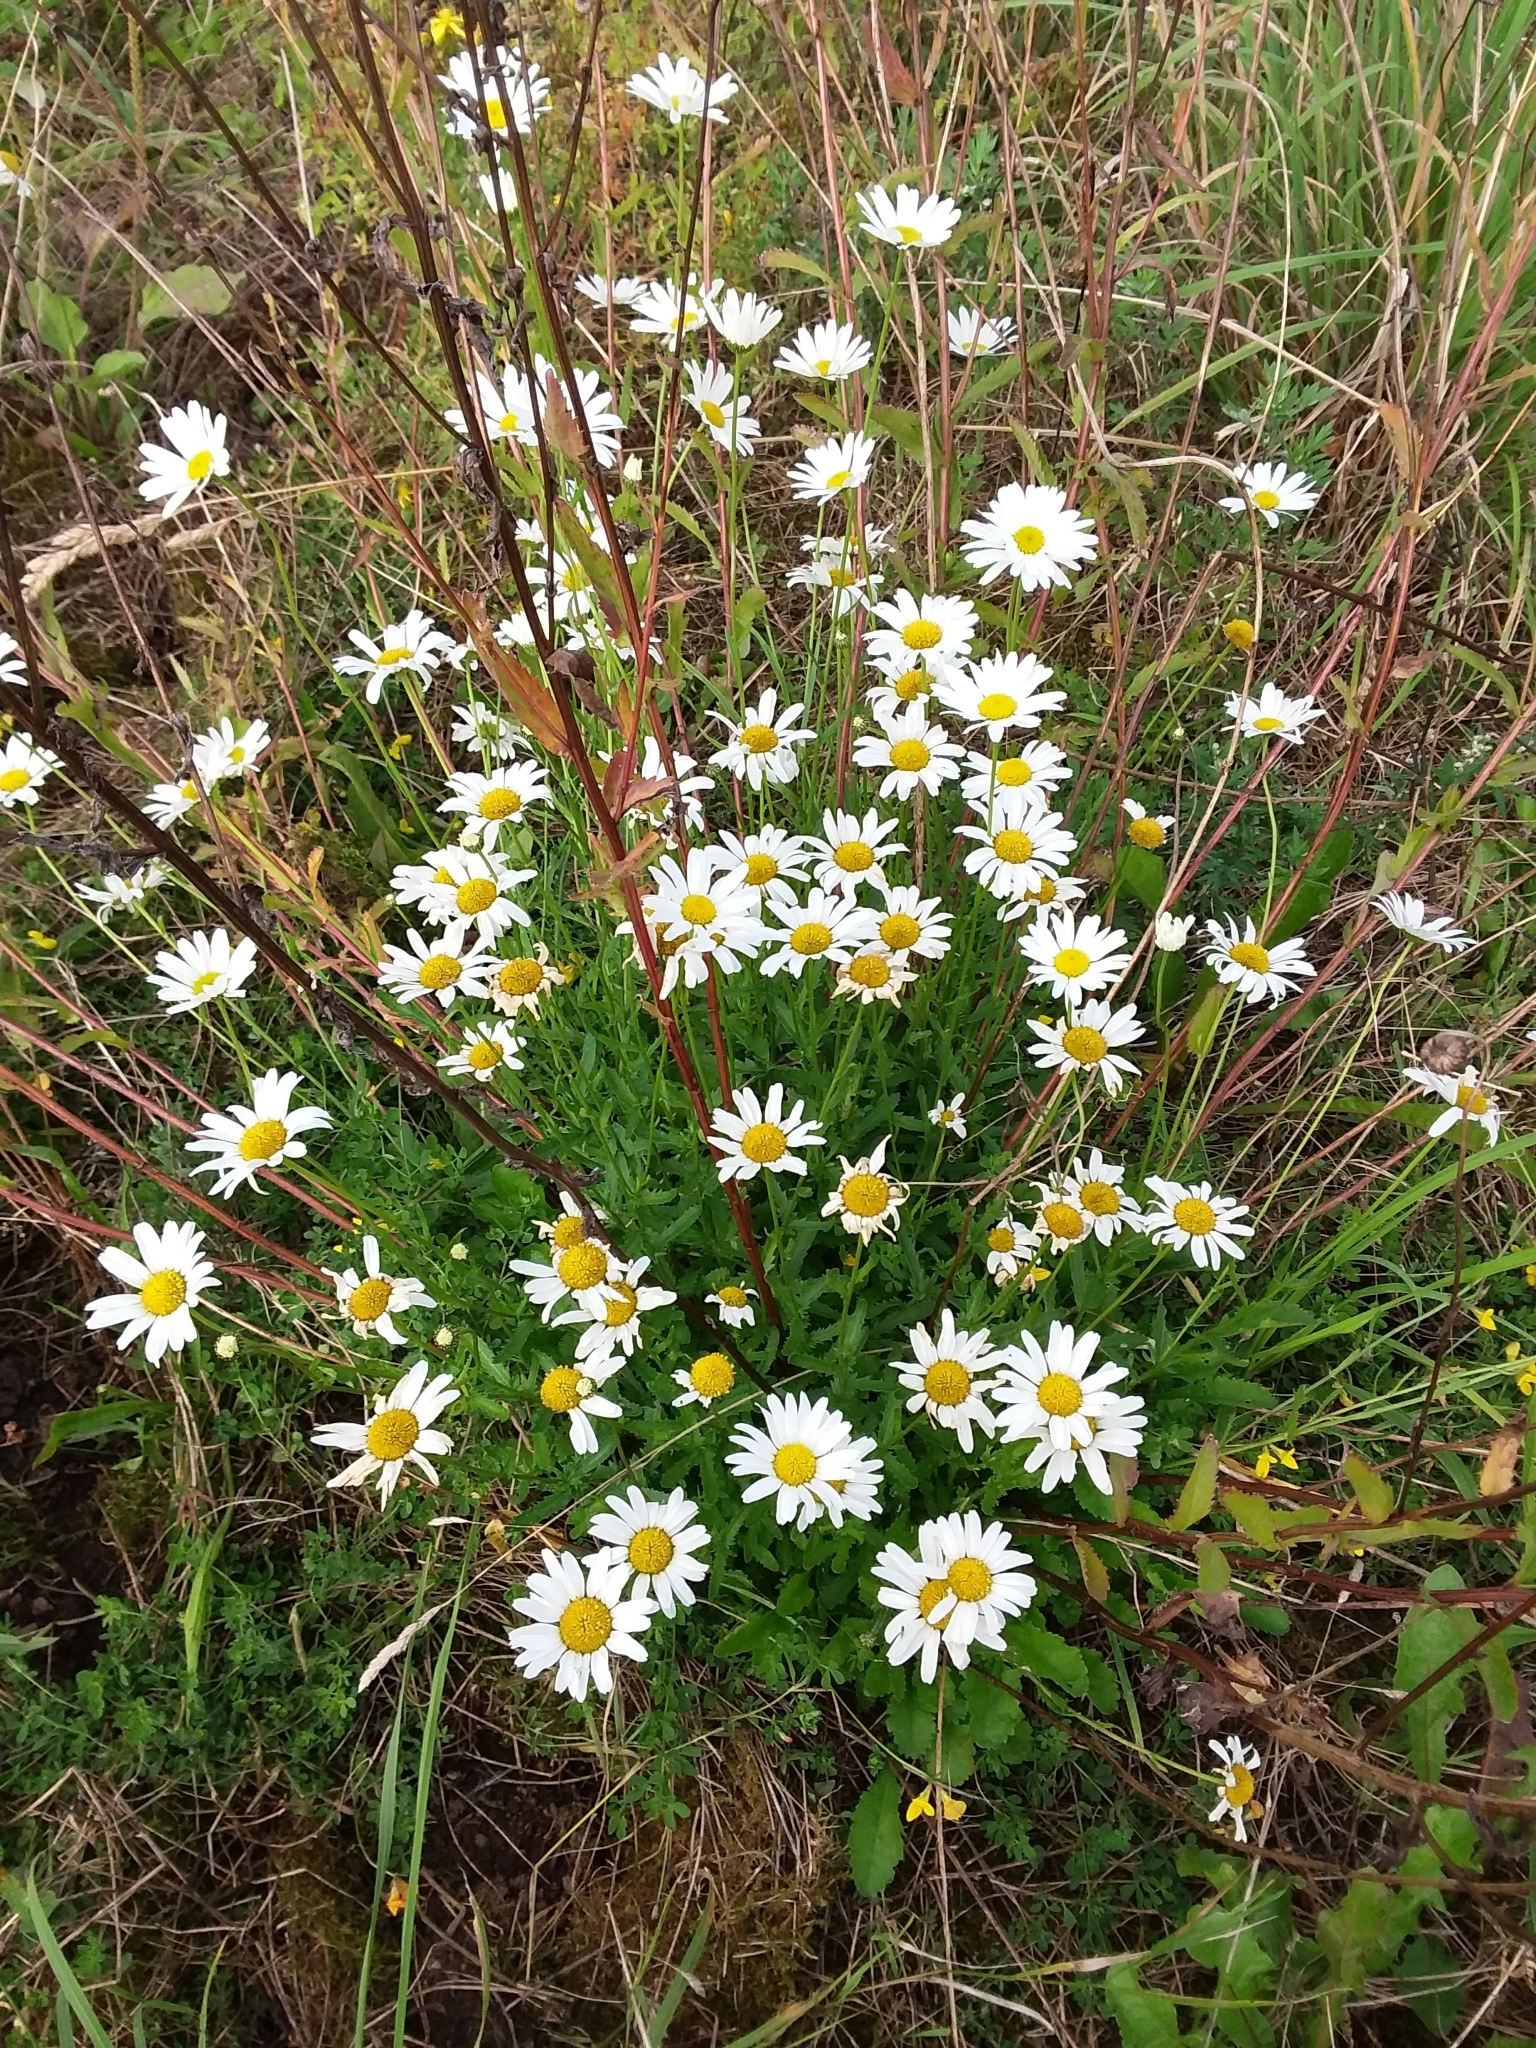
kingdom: Plantae
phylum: Tracheophyta
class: Magnoliopsida
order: Asterales
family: Asteraceae
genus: Leucanthemum
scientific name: Leucanthemum vulgare
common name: Oxeye daisy
